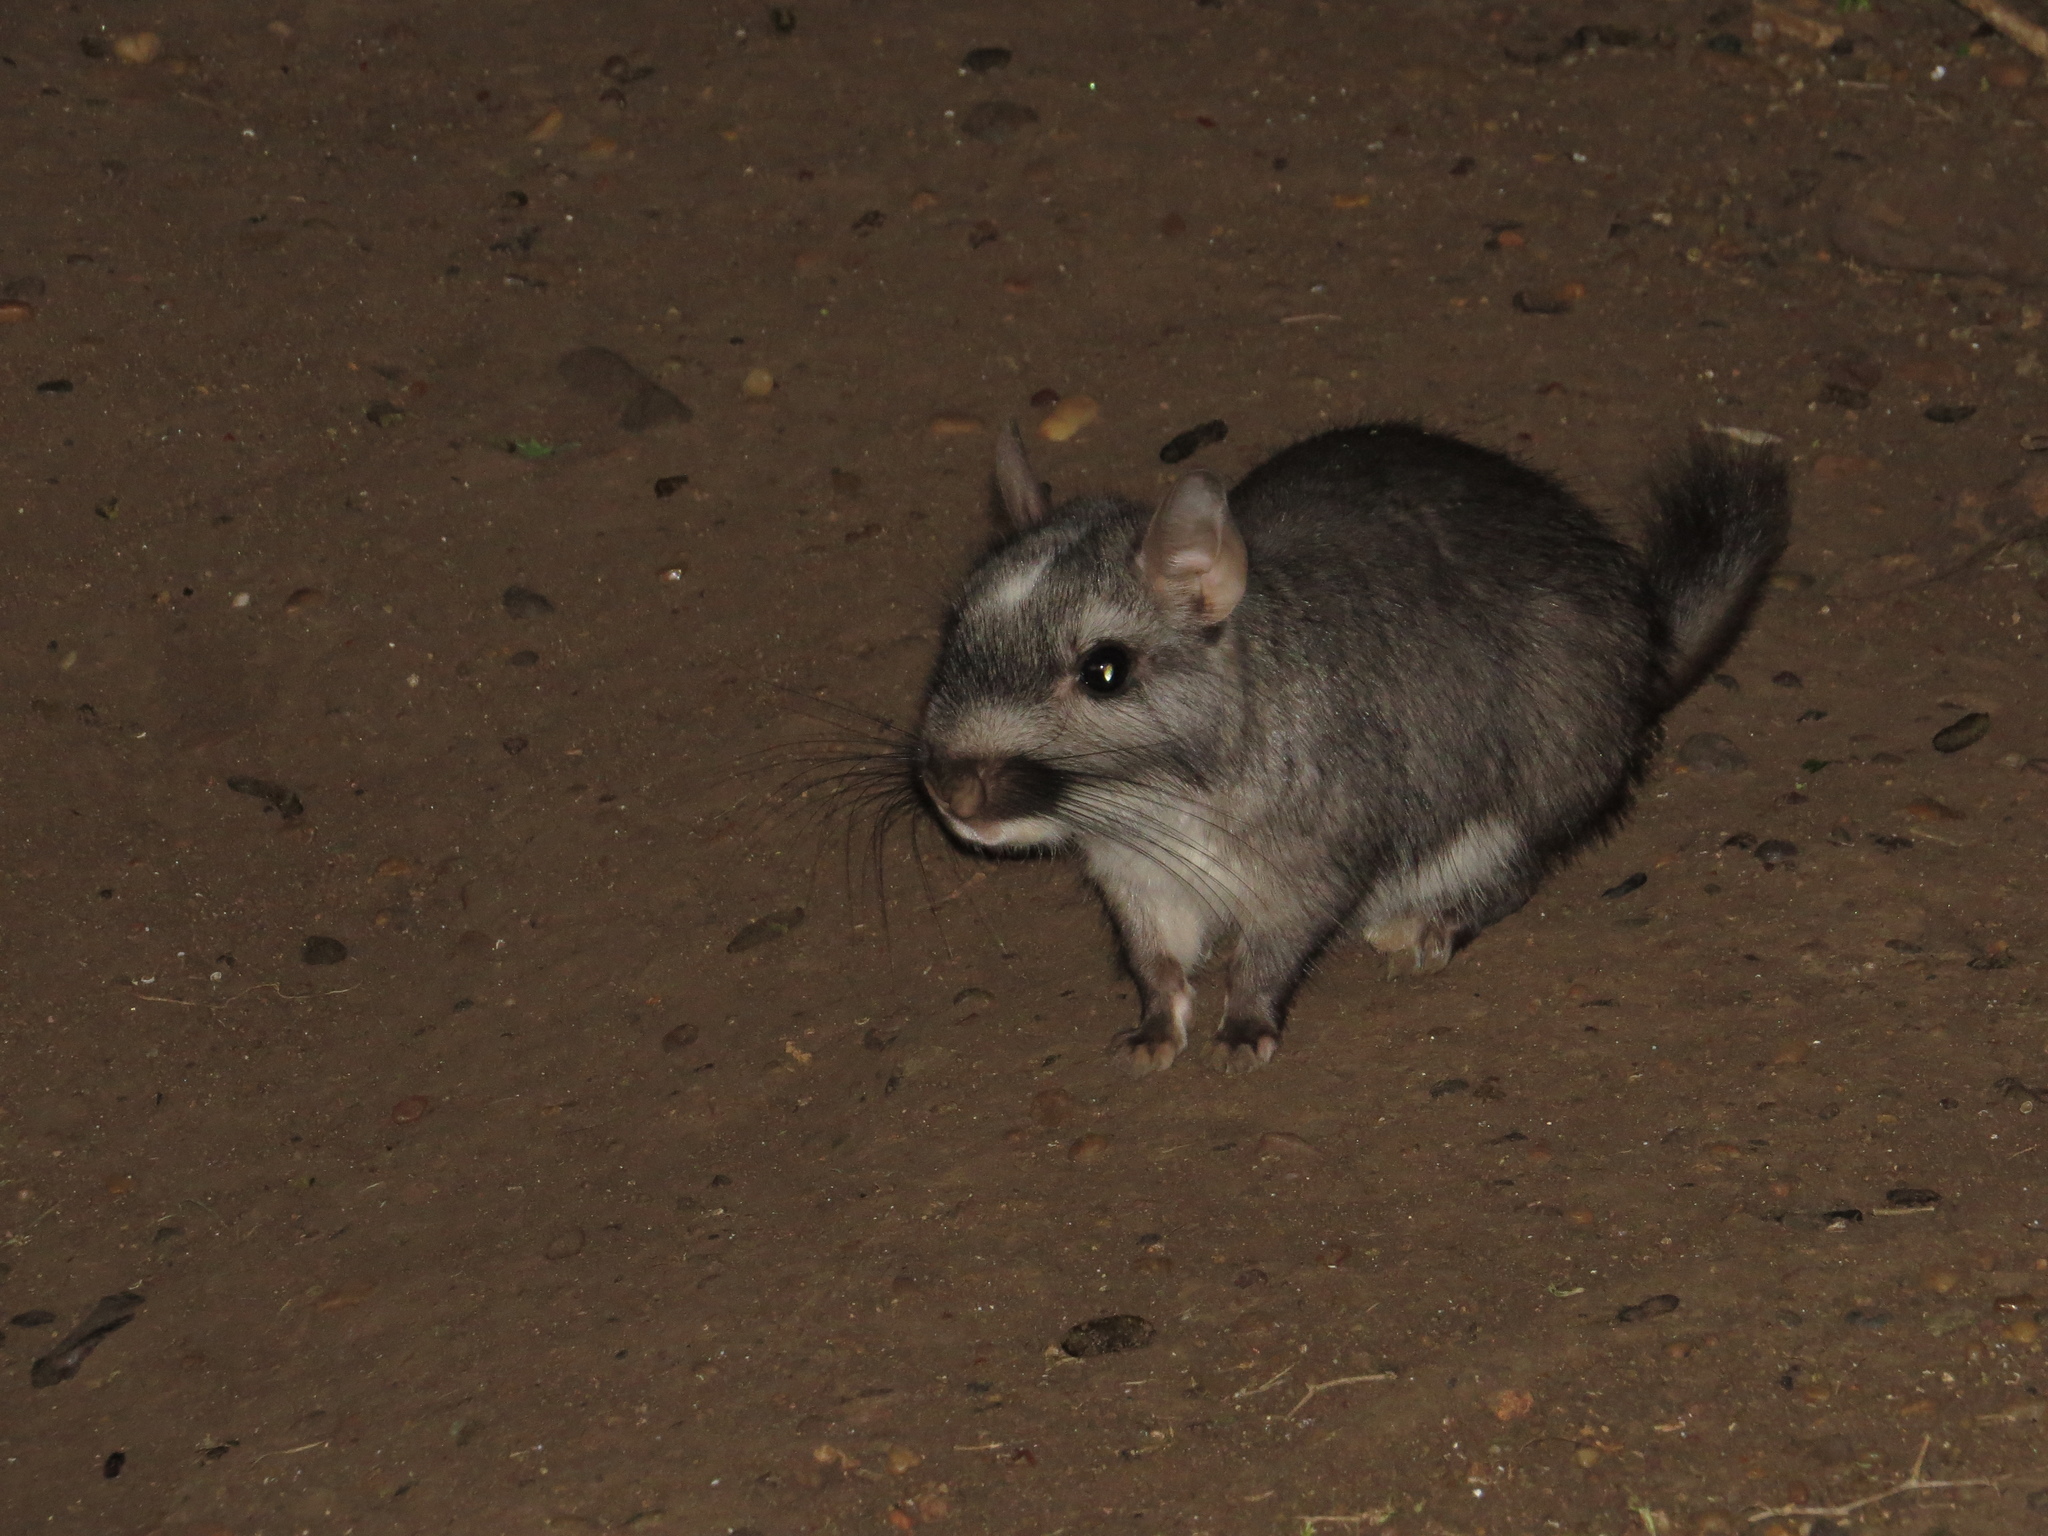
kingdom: Animalia
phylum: Chordata
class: Mammalia
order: Rodentia
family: Chinchillidae
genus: Lagostomus
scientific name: Lagostomus maximus
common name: Plains viscacha
